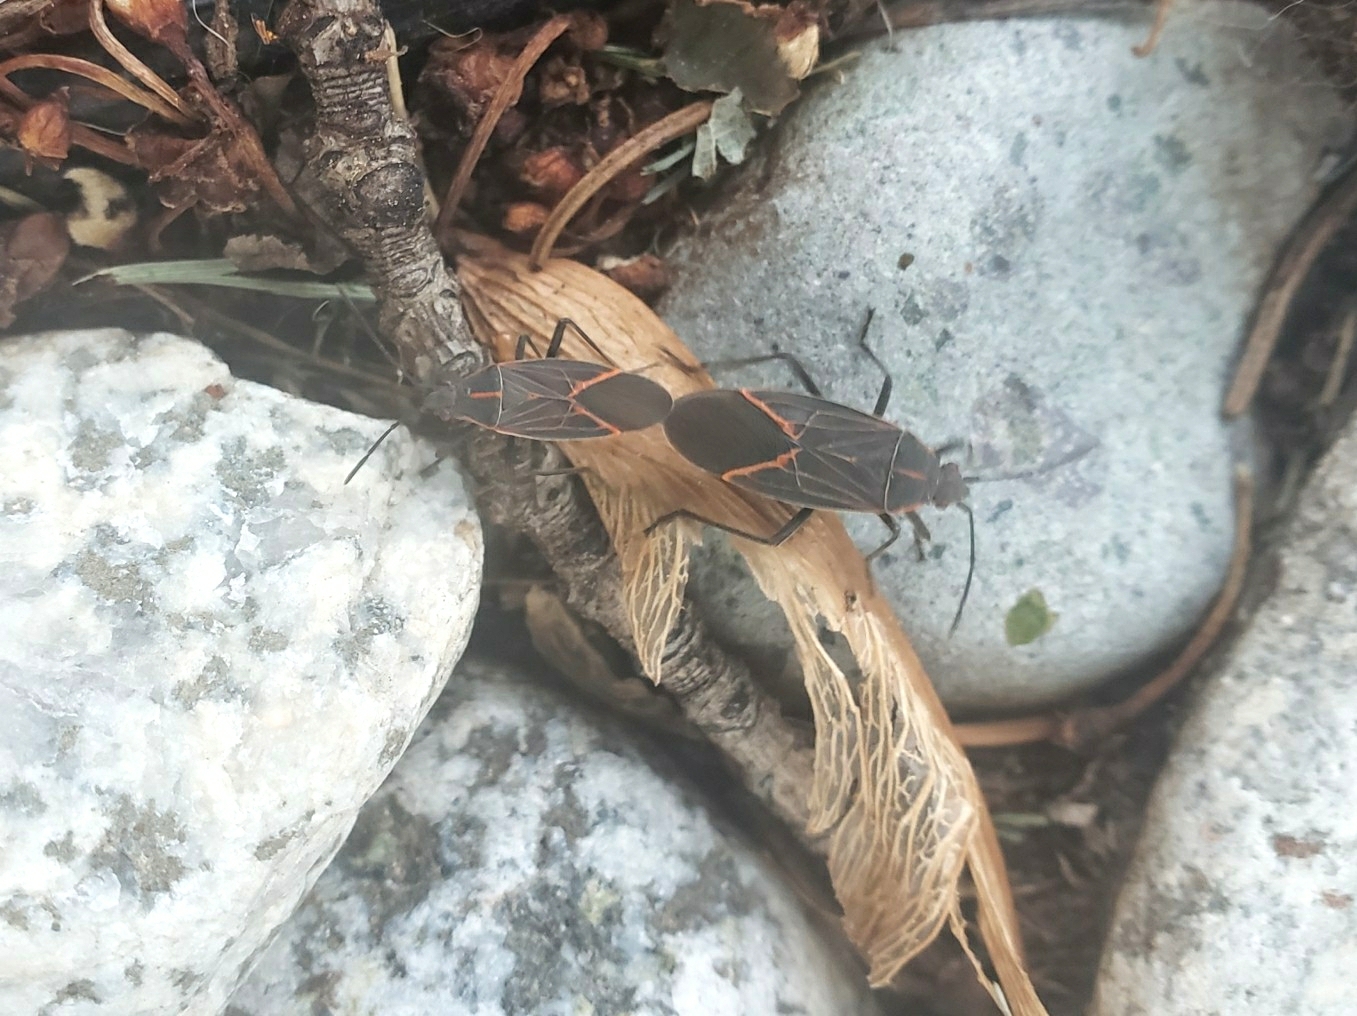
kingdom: Animalia
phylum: Arthropoda
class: Insecta
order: Hemiptera
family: Rhopalidae
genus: Boisea
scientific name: Boisea rubrolineata
